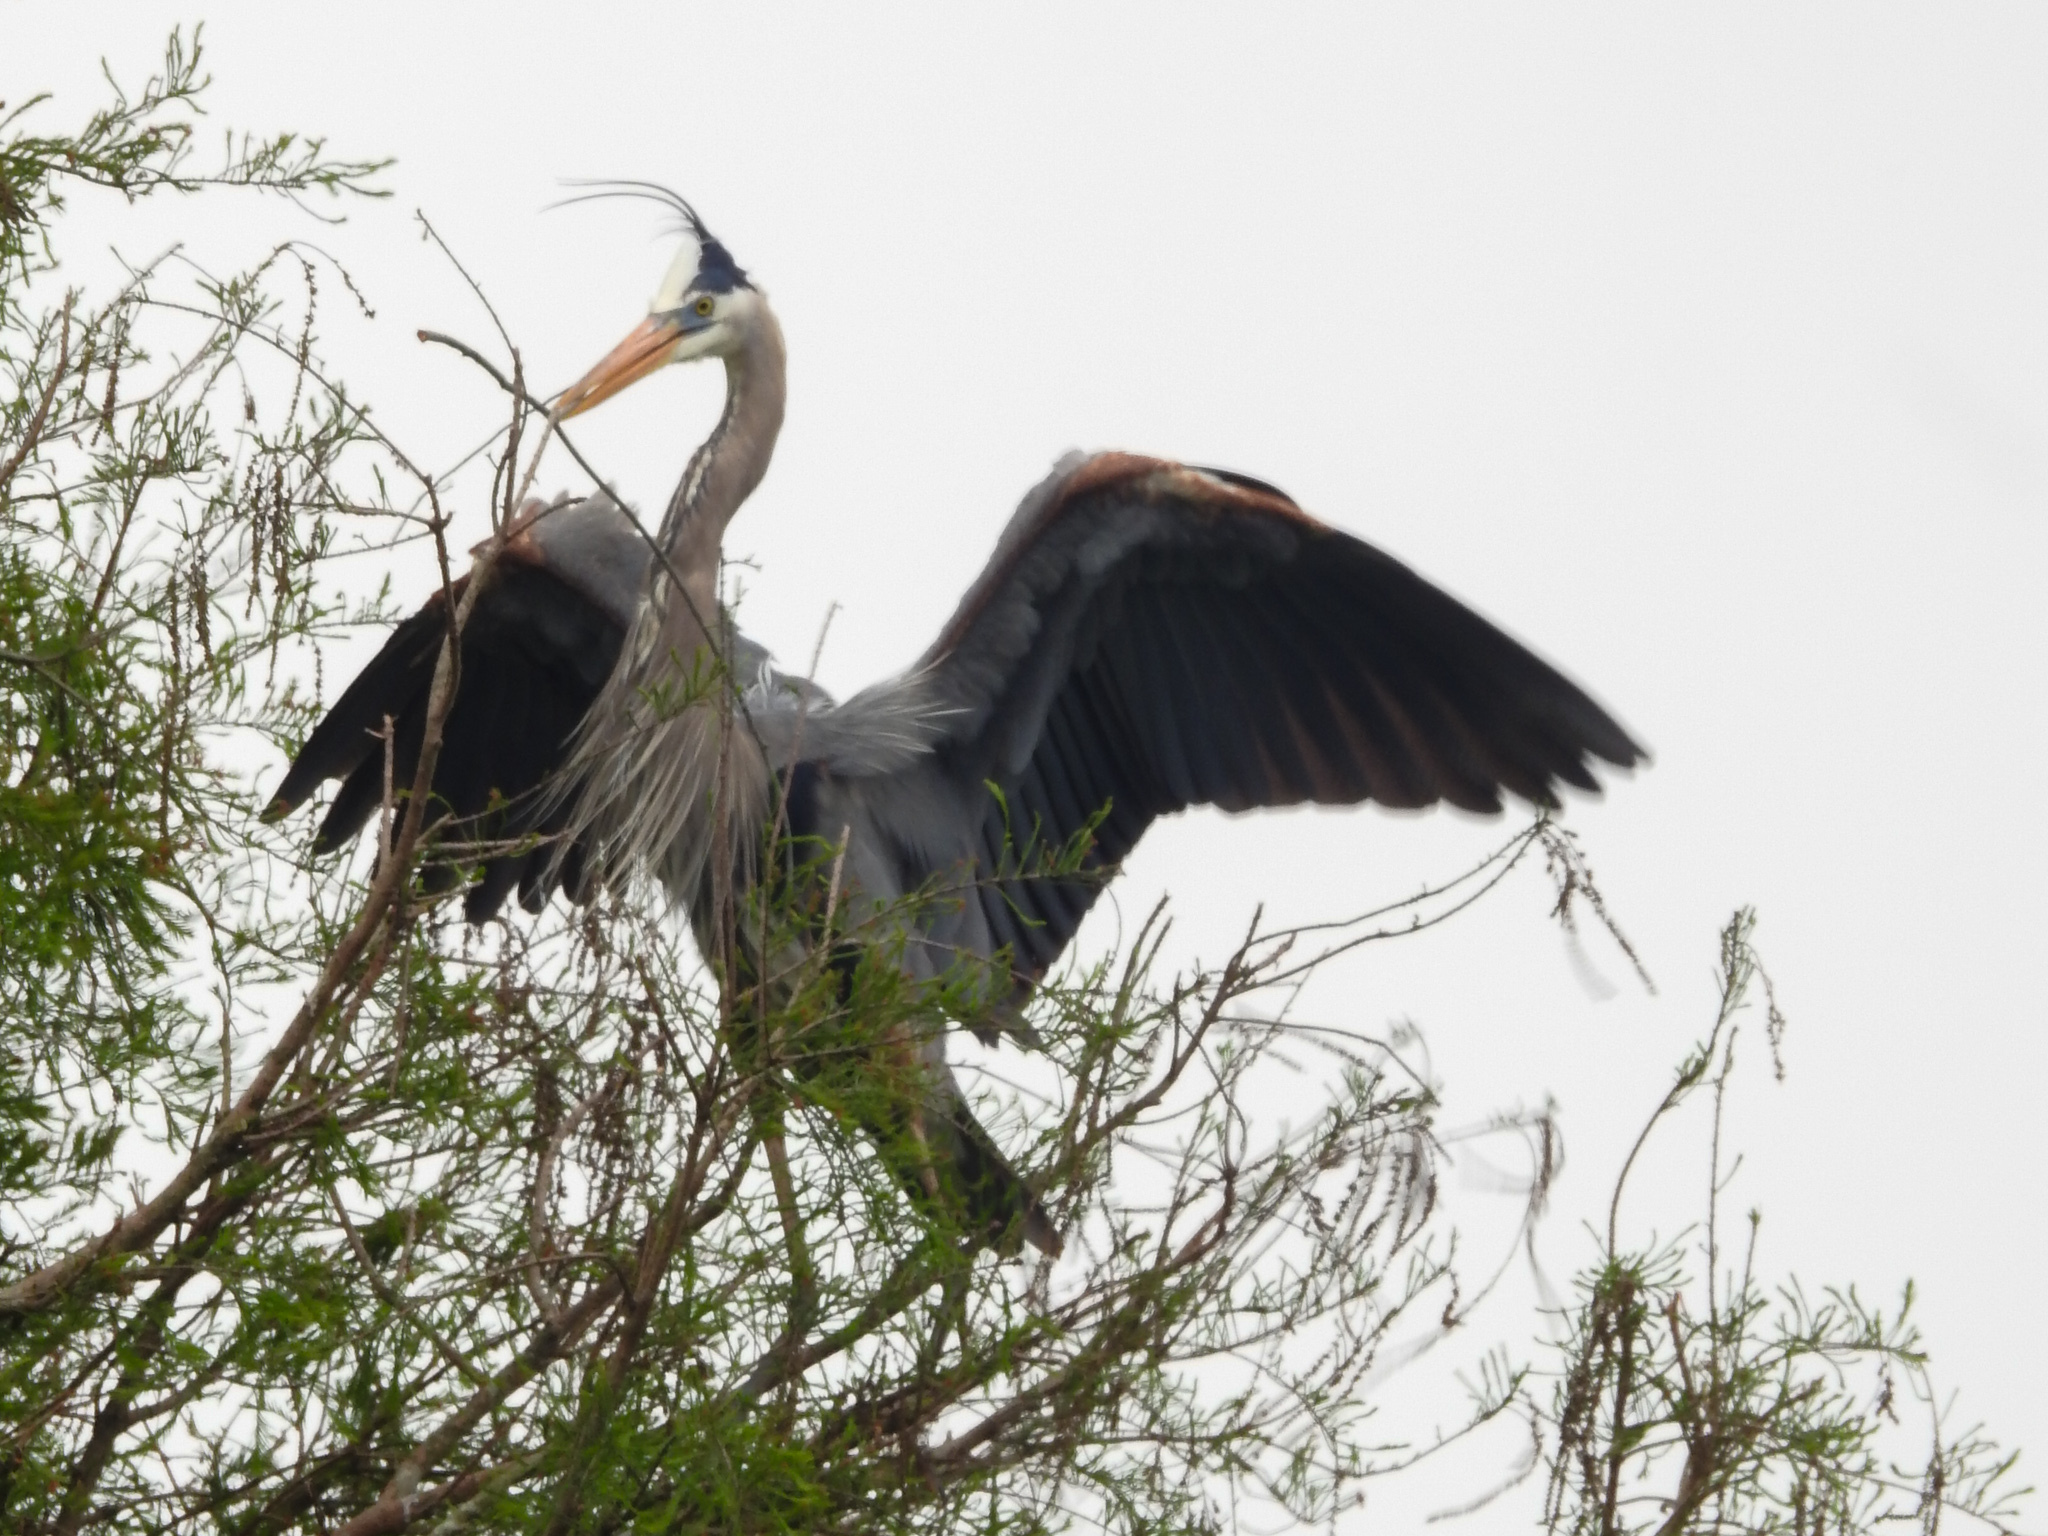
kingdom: Animalia
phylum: Chordata
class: Aves
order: Pelecaniformes
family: Ardeidae
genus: Ardea
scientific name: Ardea herodias
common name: Great blue heron
